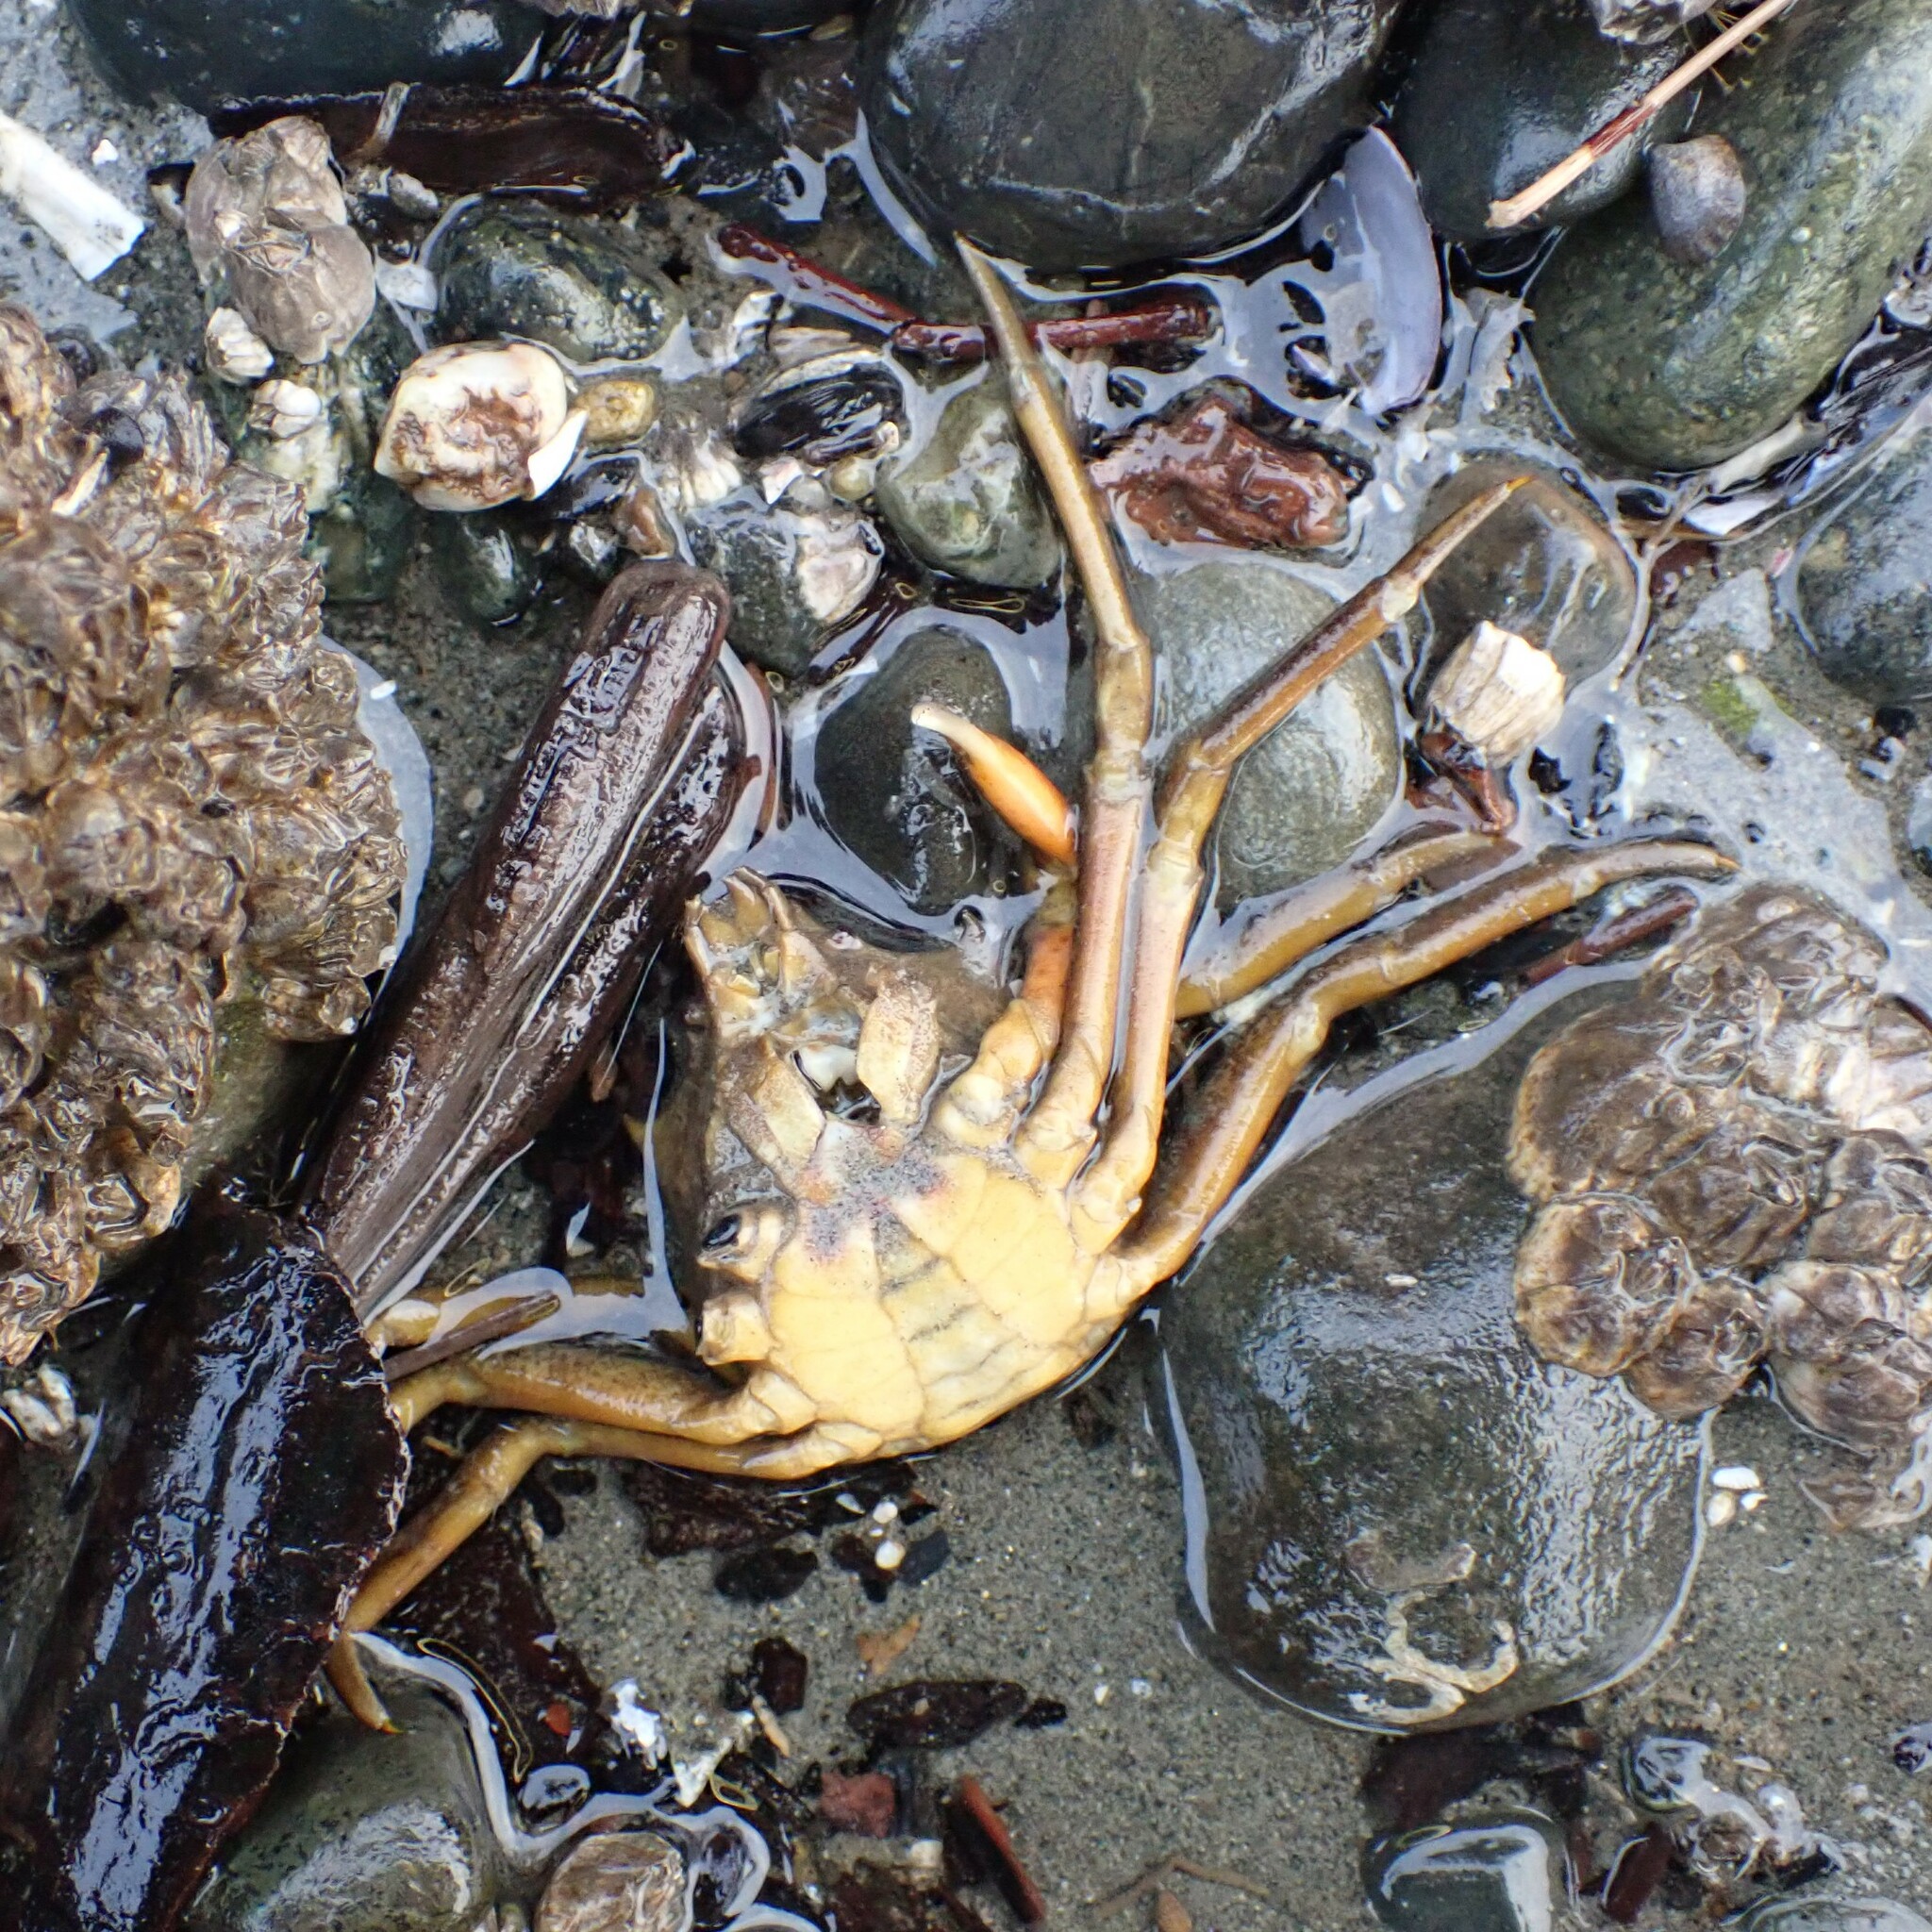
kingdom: Animalia
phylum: Arthropoda
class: Malacostraca
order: Decapoda
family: Epialtidae
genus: Pugettia
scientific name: Pugettia producta
